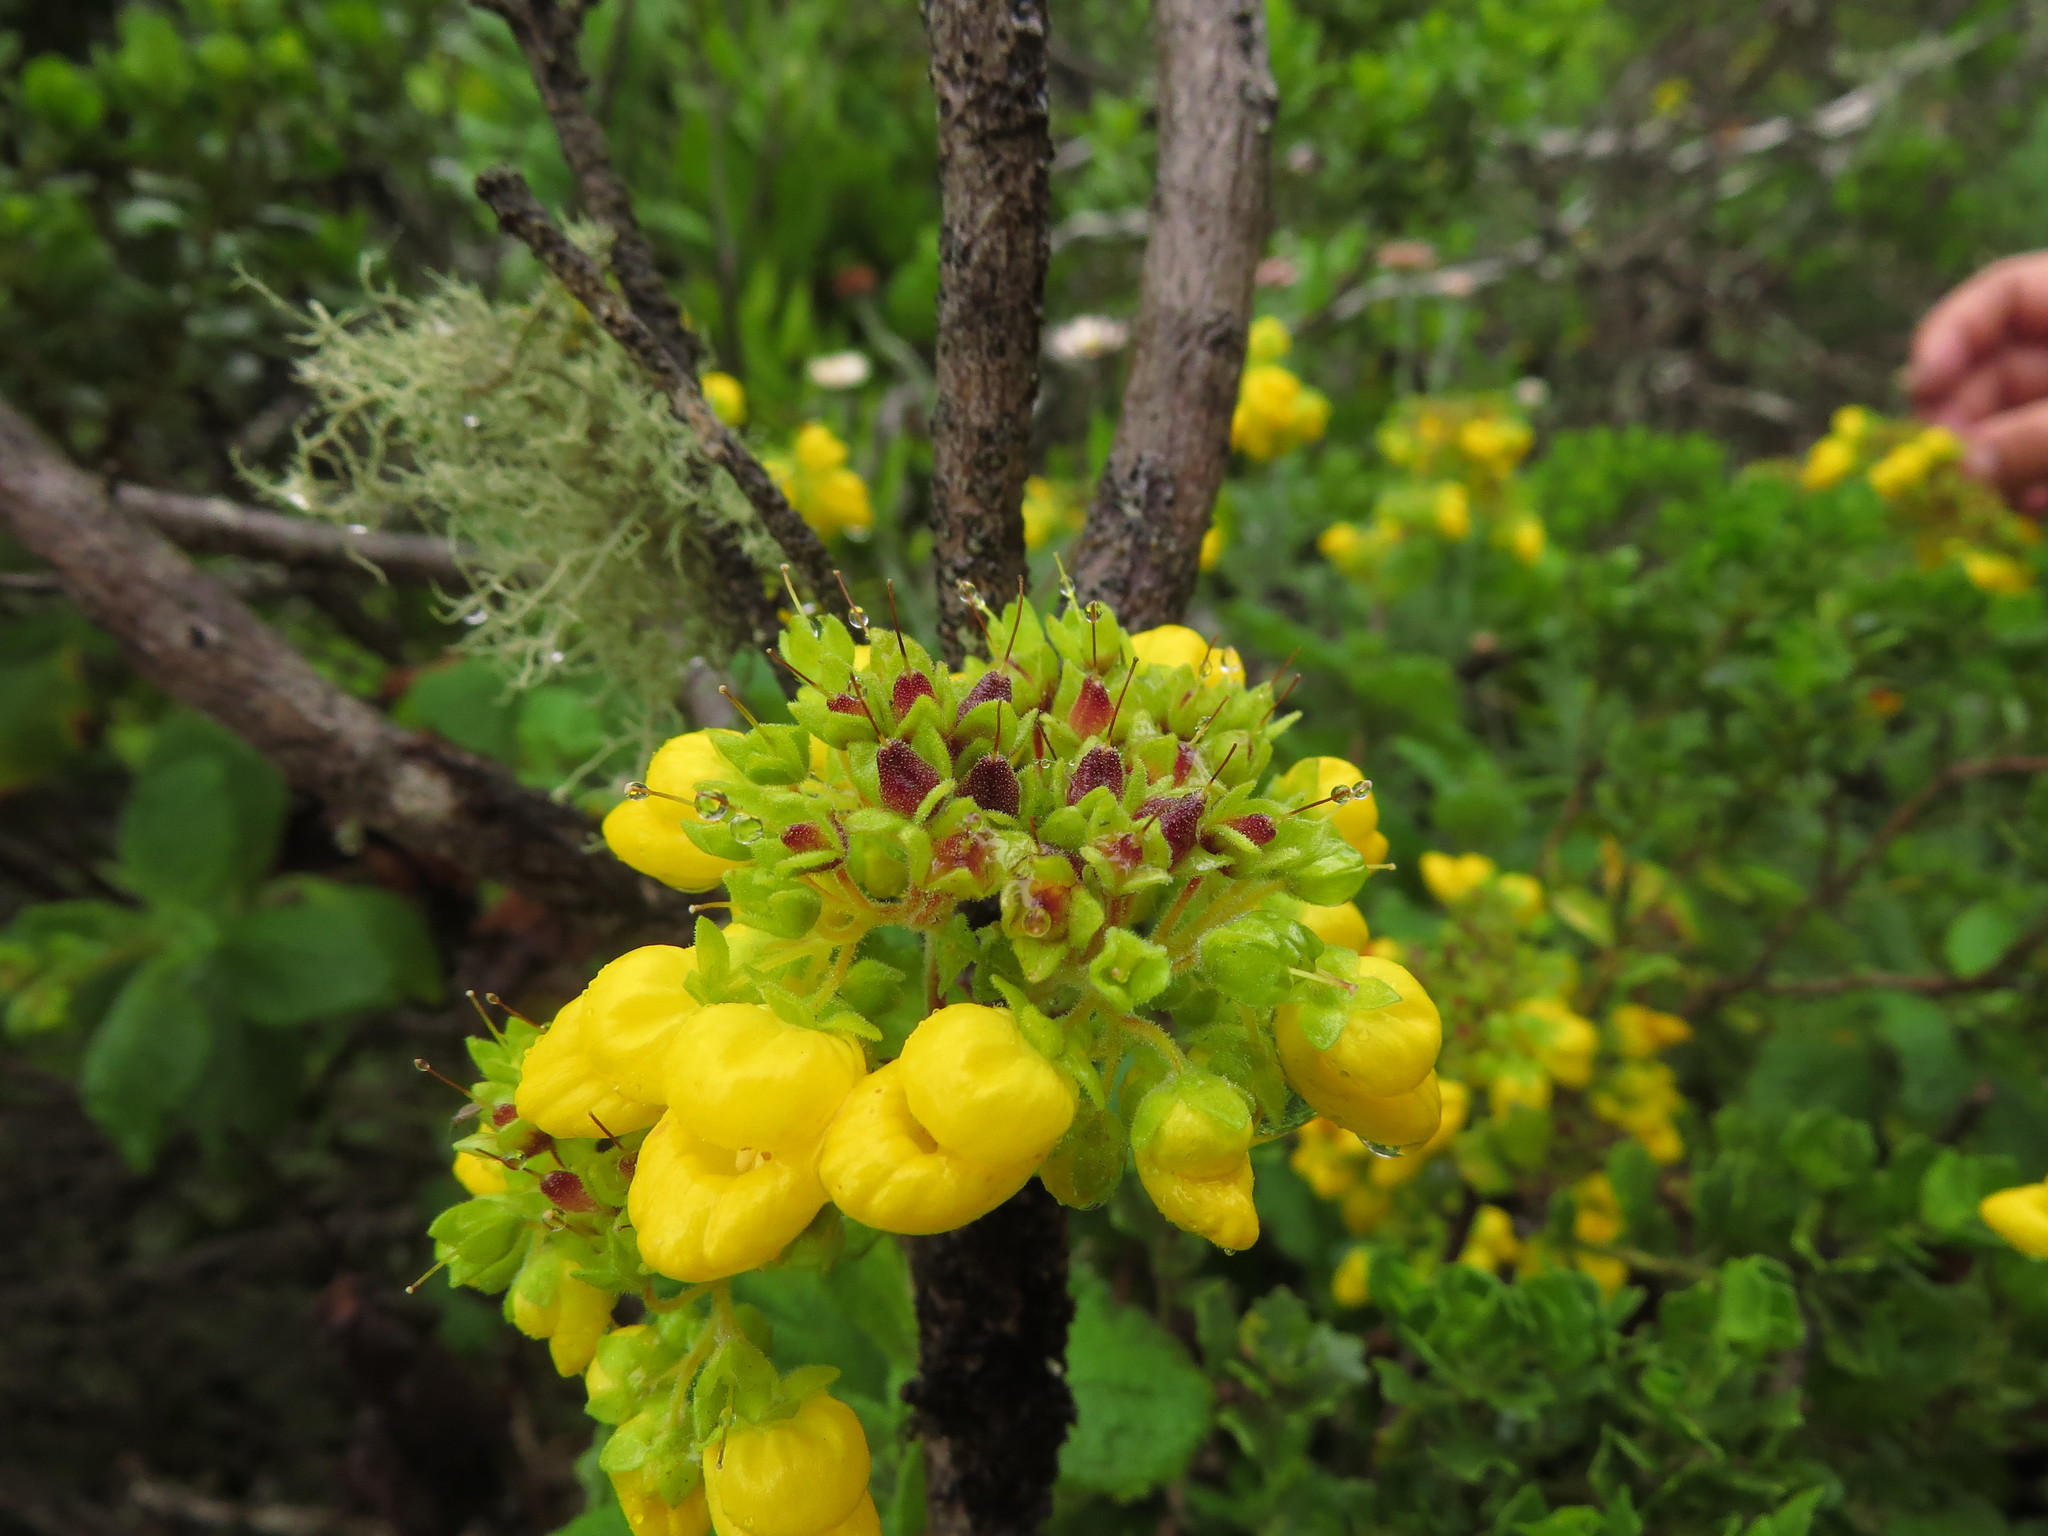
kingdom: Plantae
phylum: Tracheophyta
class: Magnoliopsida
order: Lamiales
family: Calceolariaceae
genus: Calceolaria
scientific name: Calceolaria georgiana
